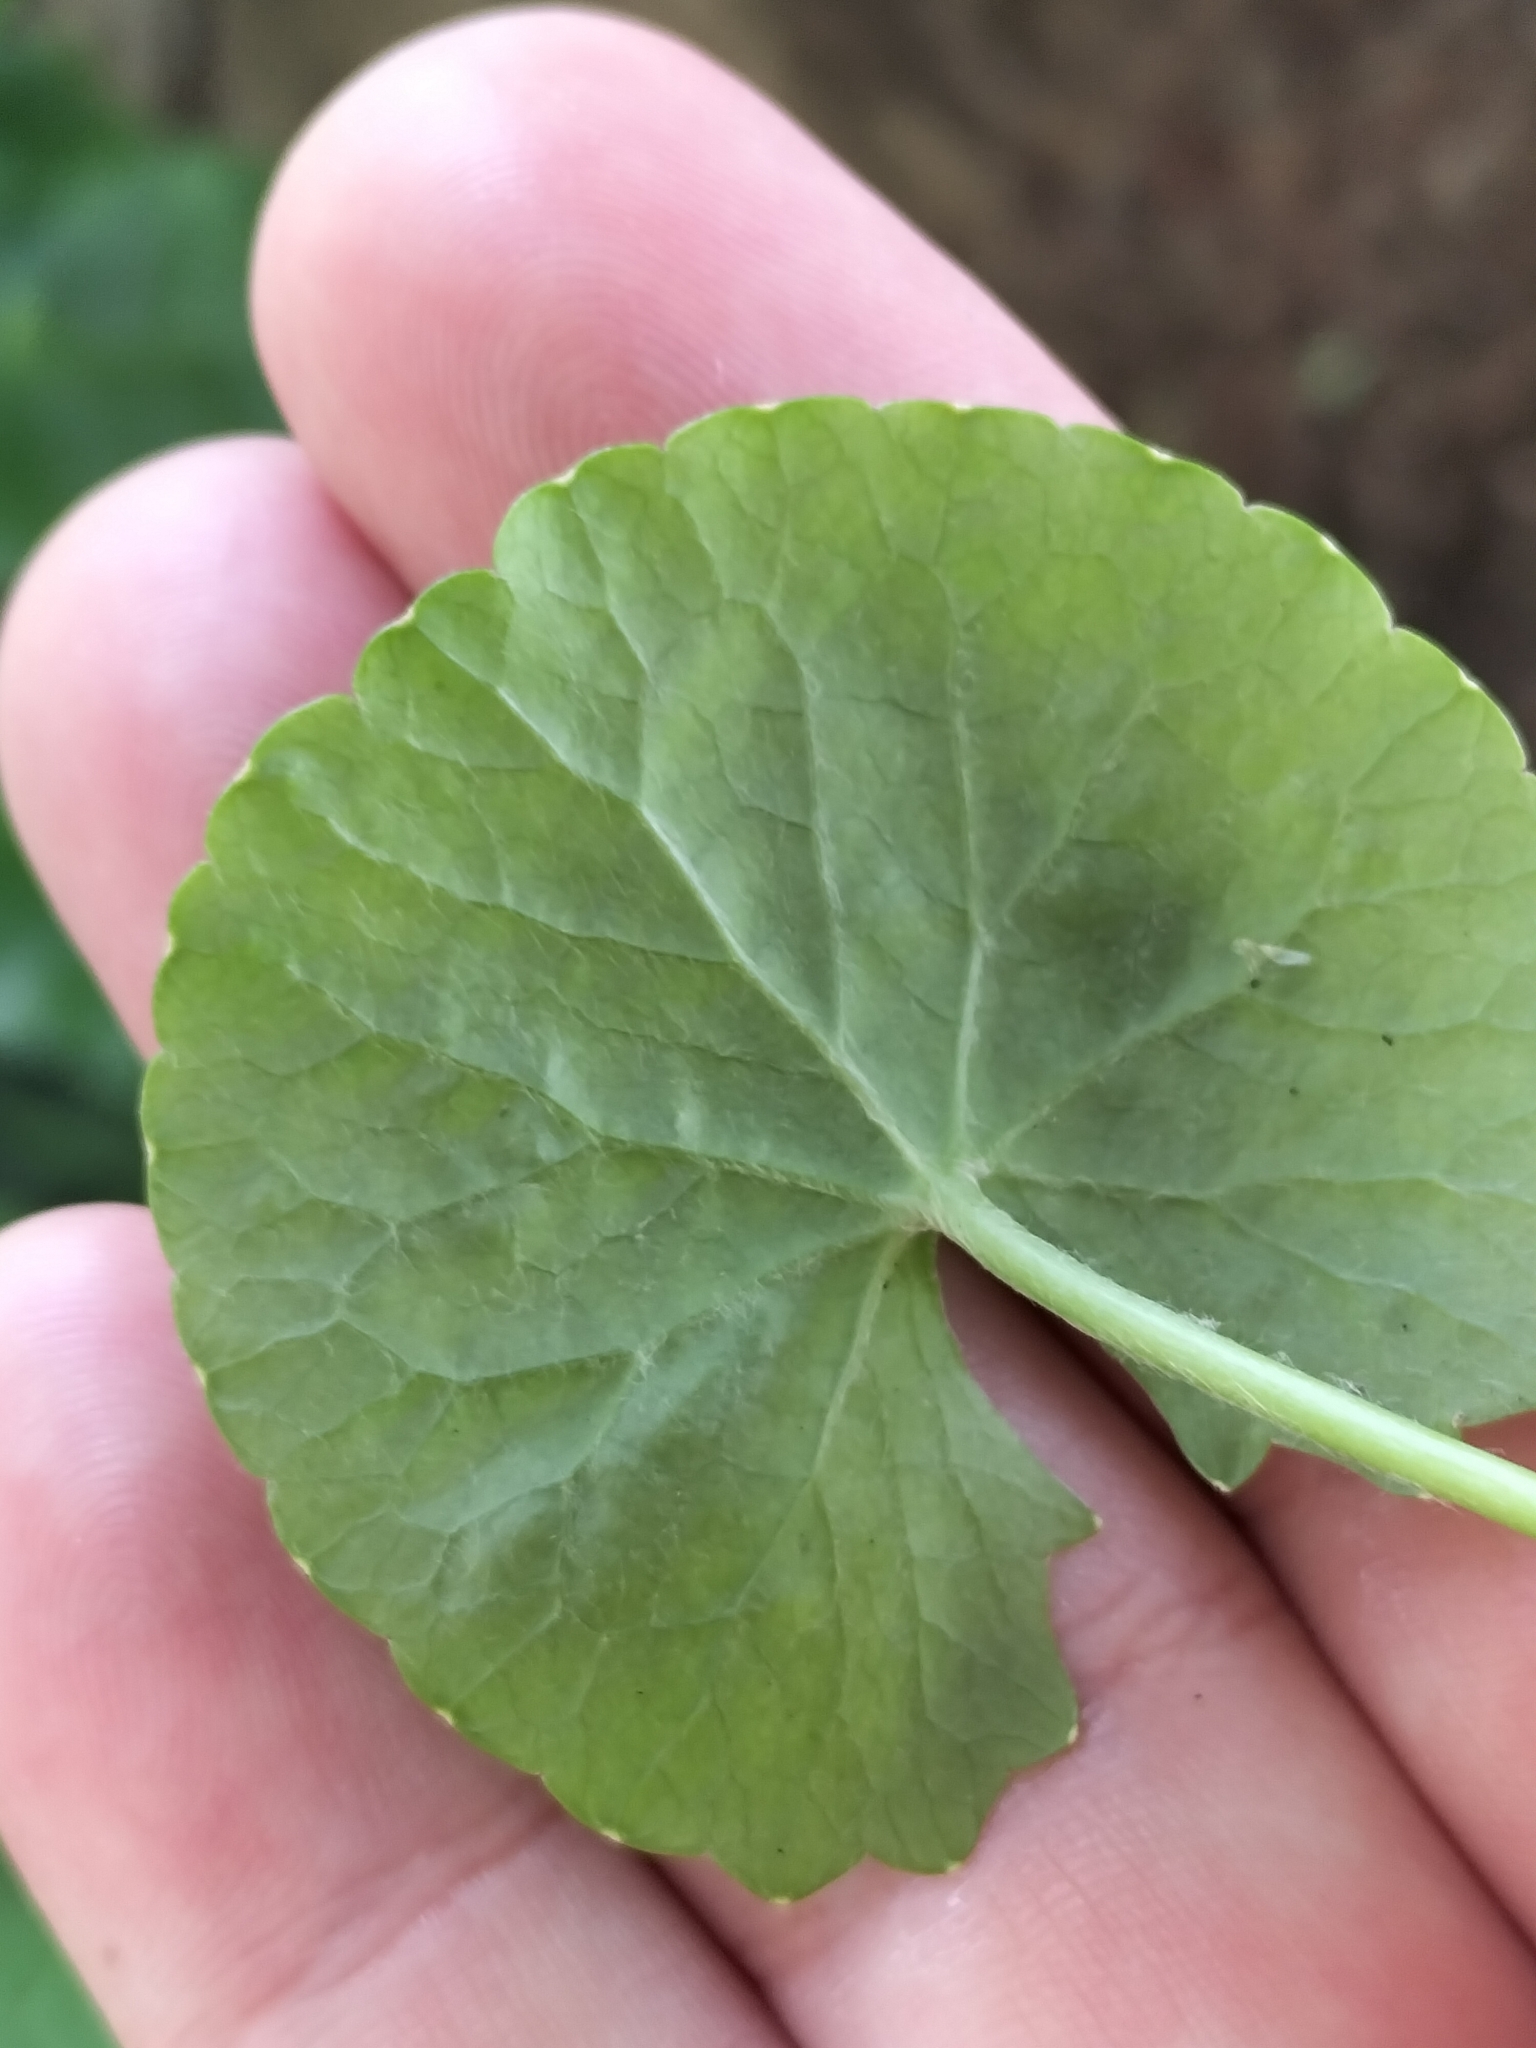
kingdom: Plantae
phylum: Tracheophyta
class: Magnoliopsida
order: Apiales
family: Apiaceae
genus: Centella
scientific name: Centella asiatica
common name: Spadeleaf
